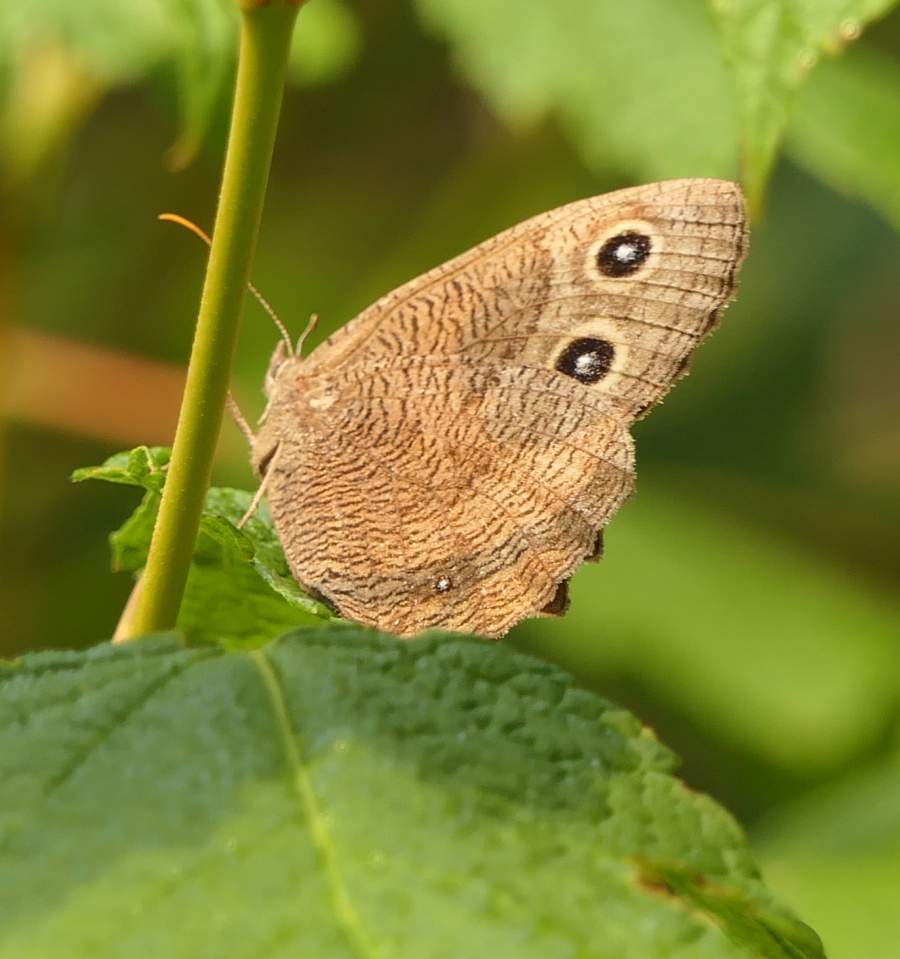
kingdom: Animalia
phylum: Arthropoda
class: Insecta
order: Lepidoptera
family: Nymphalidae
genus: Cercyonis
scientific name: Cercyonis pegala
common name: Common wood-nymph
